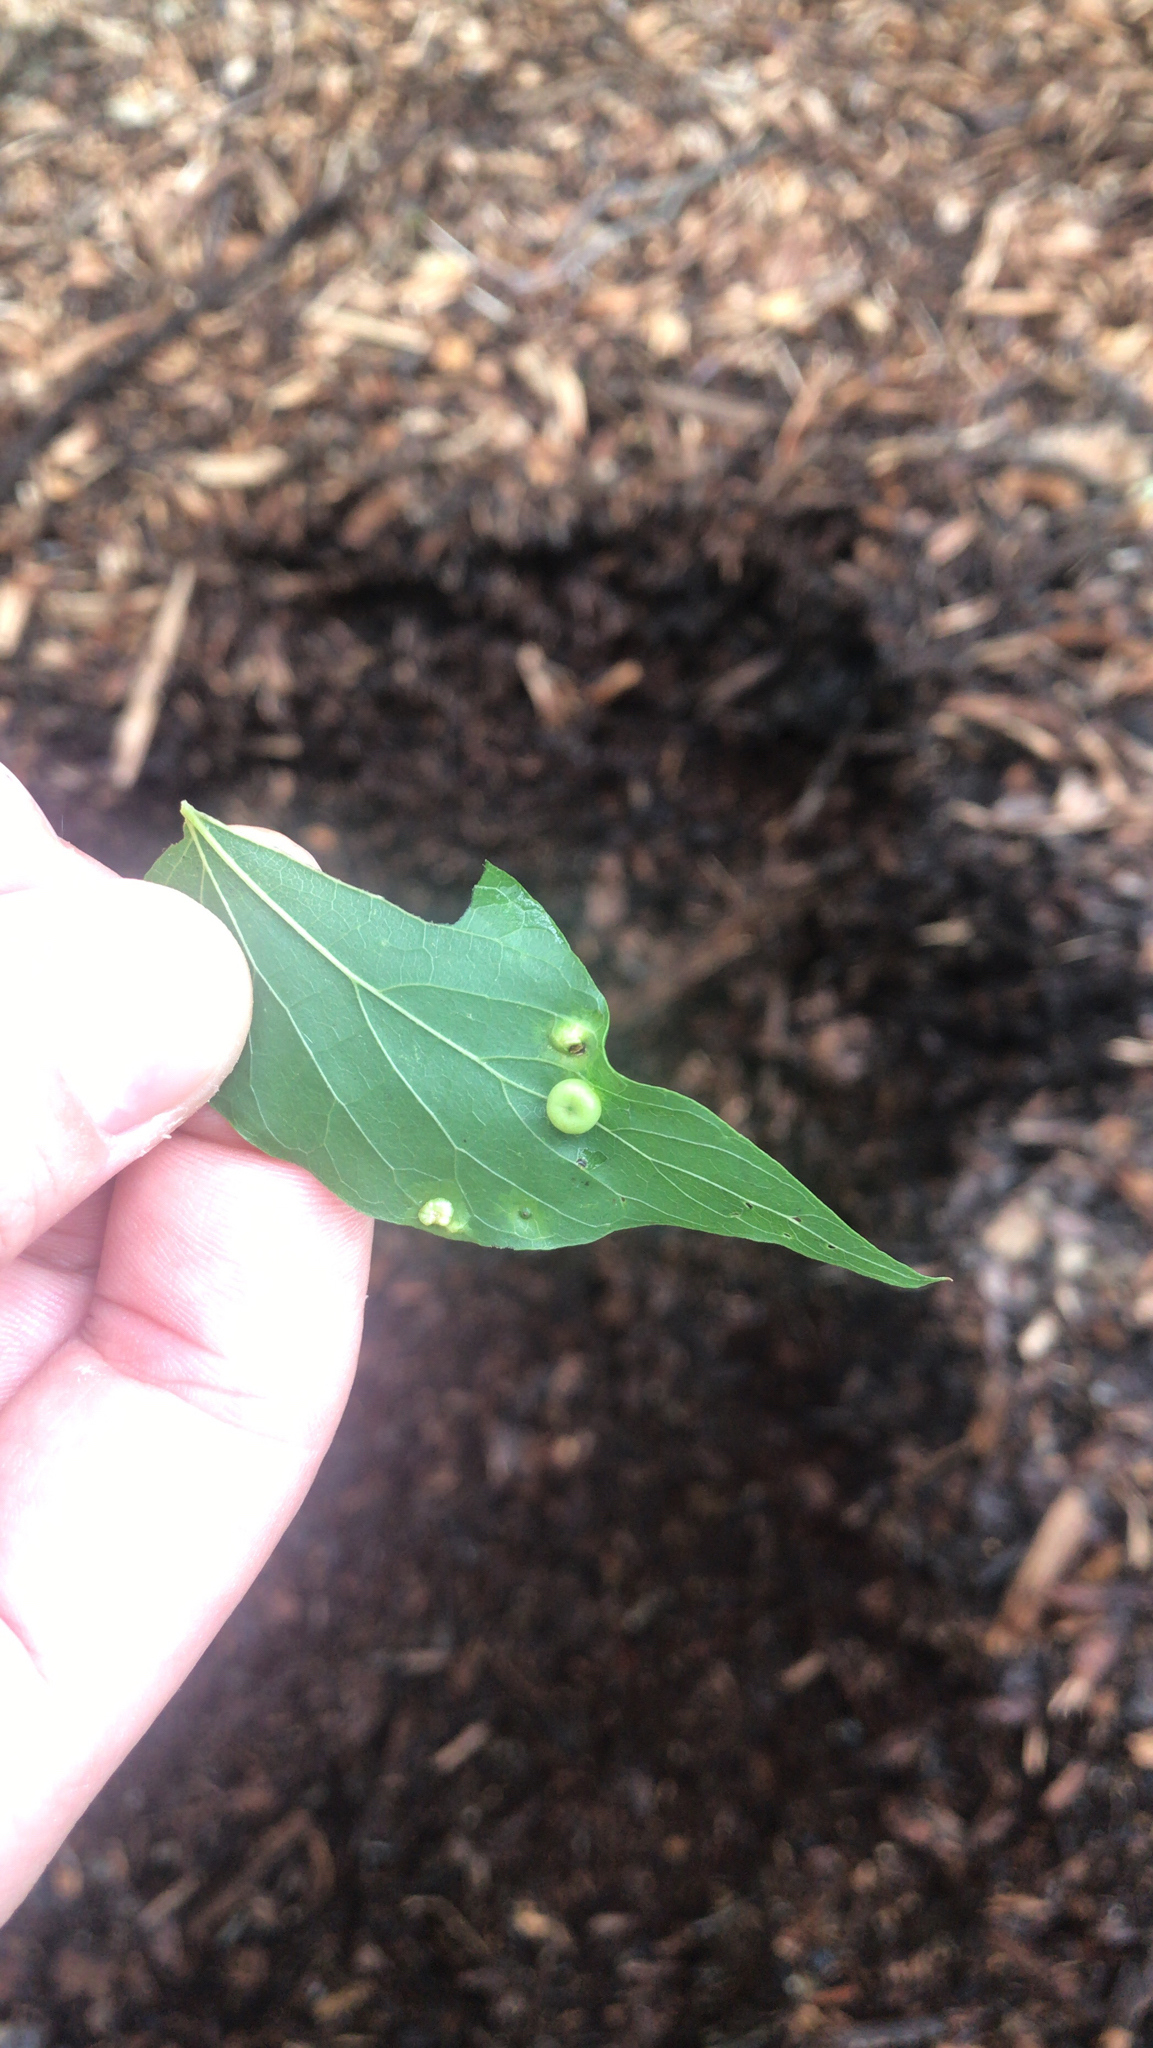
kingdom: Animalia
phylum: Arthropoda
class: Insecta
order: Hemiptera
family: Aphalaridae
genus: Pachypsylla
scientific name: Pachypsylla celtidismamma
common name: Hackberry nipplegall psyllid
